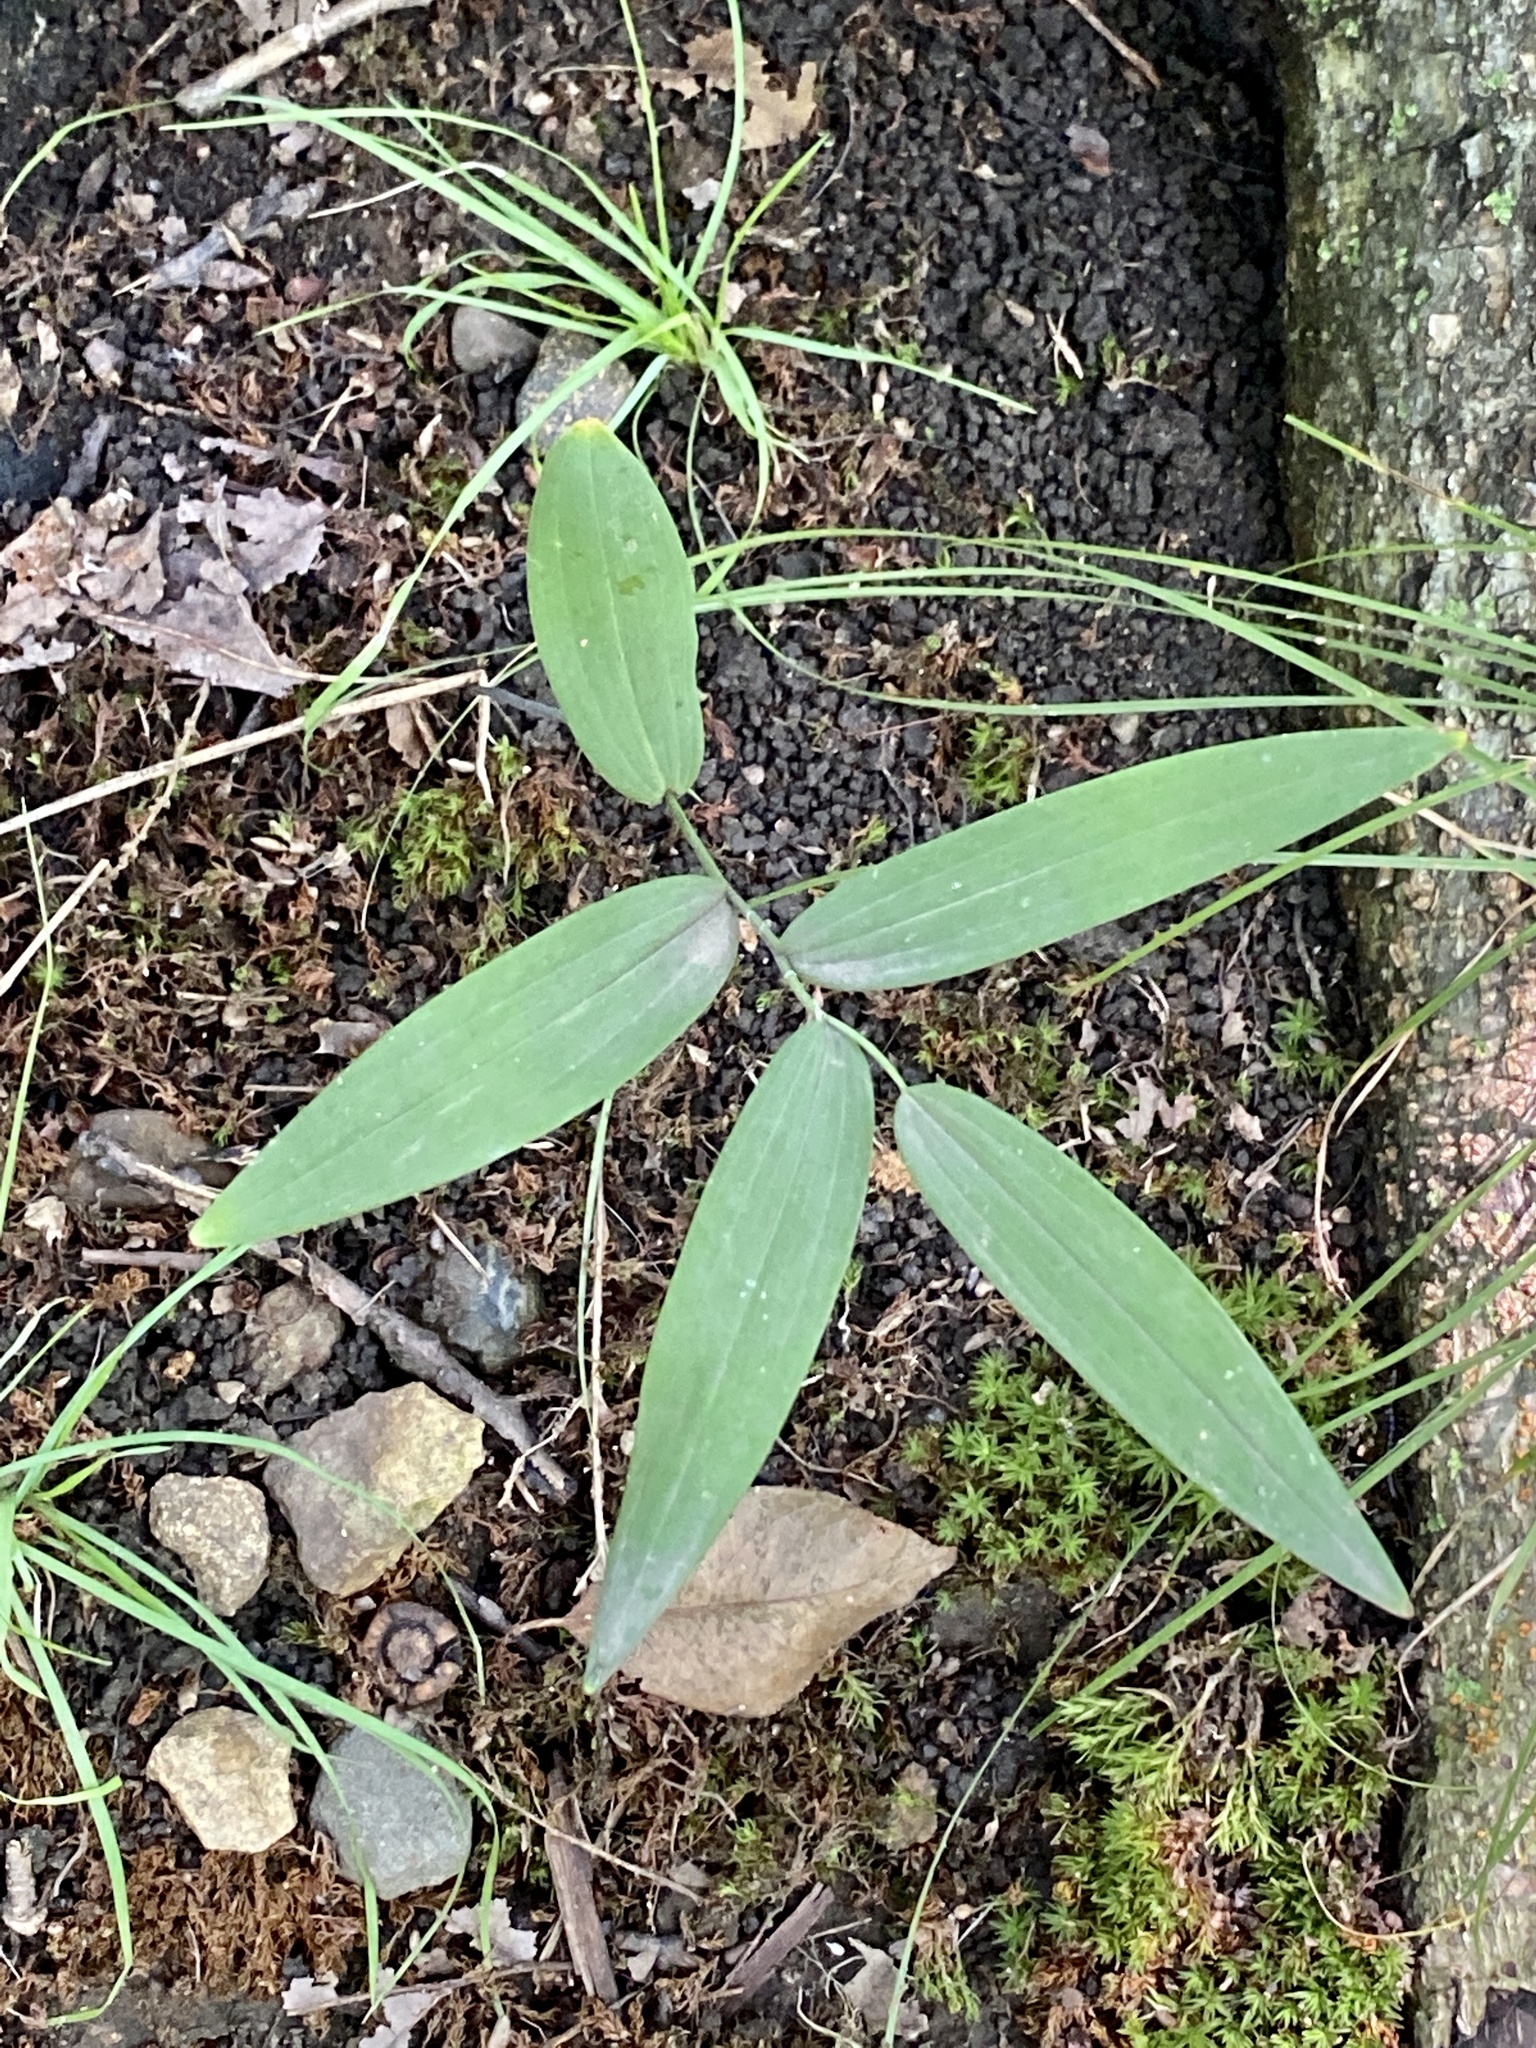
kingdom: Plantae
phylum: Tracheophyta
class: Liliopsida
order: Asparagales
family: Asparagaceae
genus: Polygonatum
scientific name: Polygonatum biflorum
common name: American solomon's-seal
